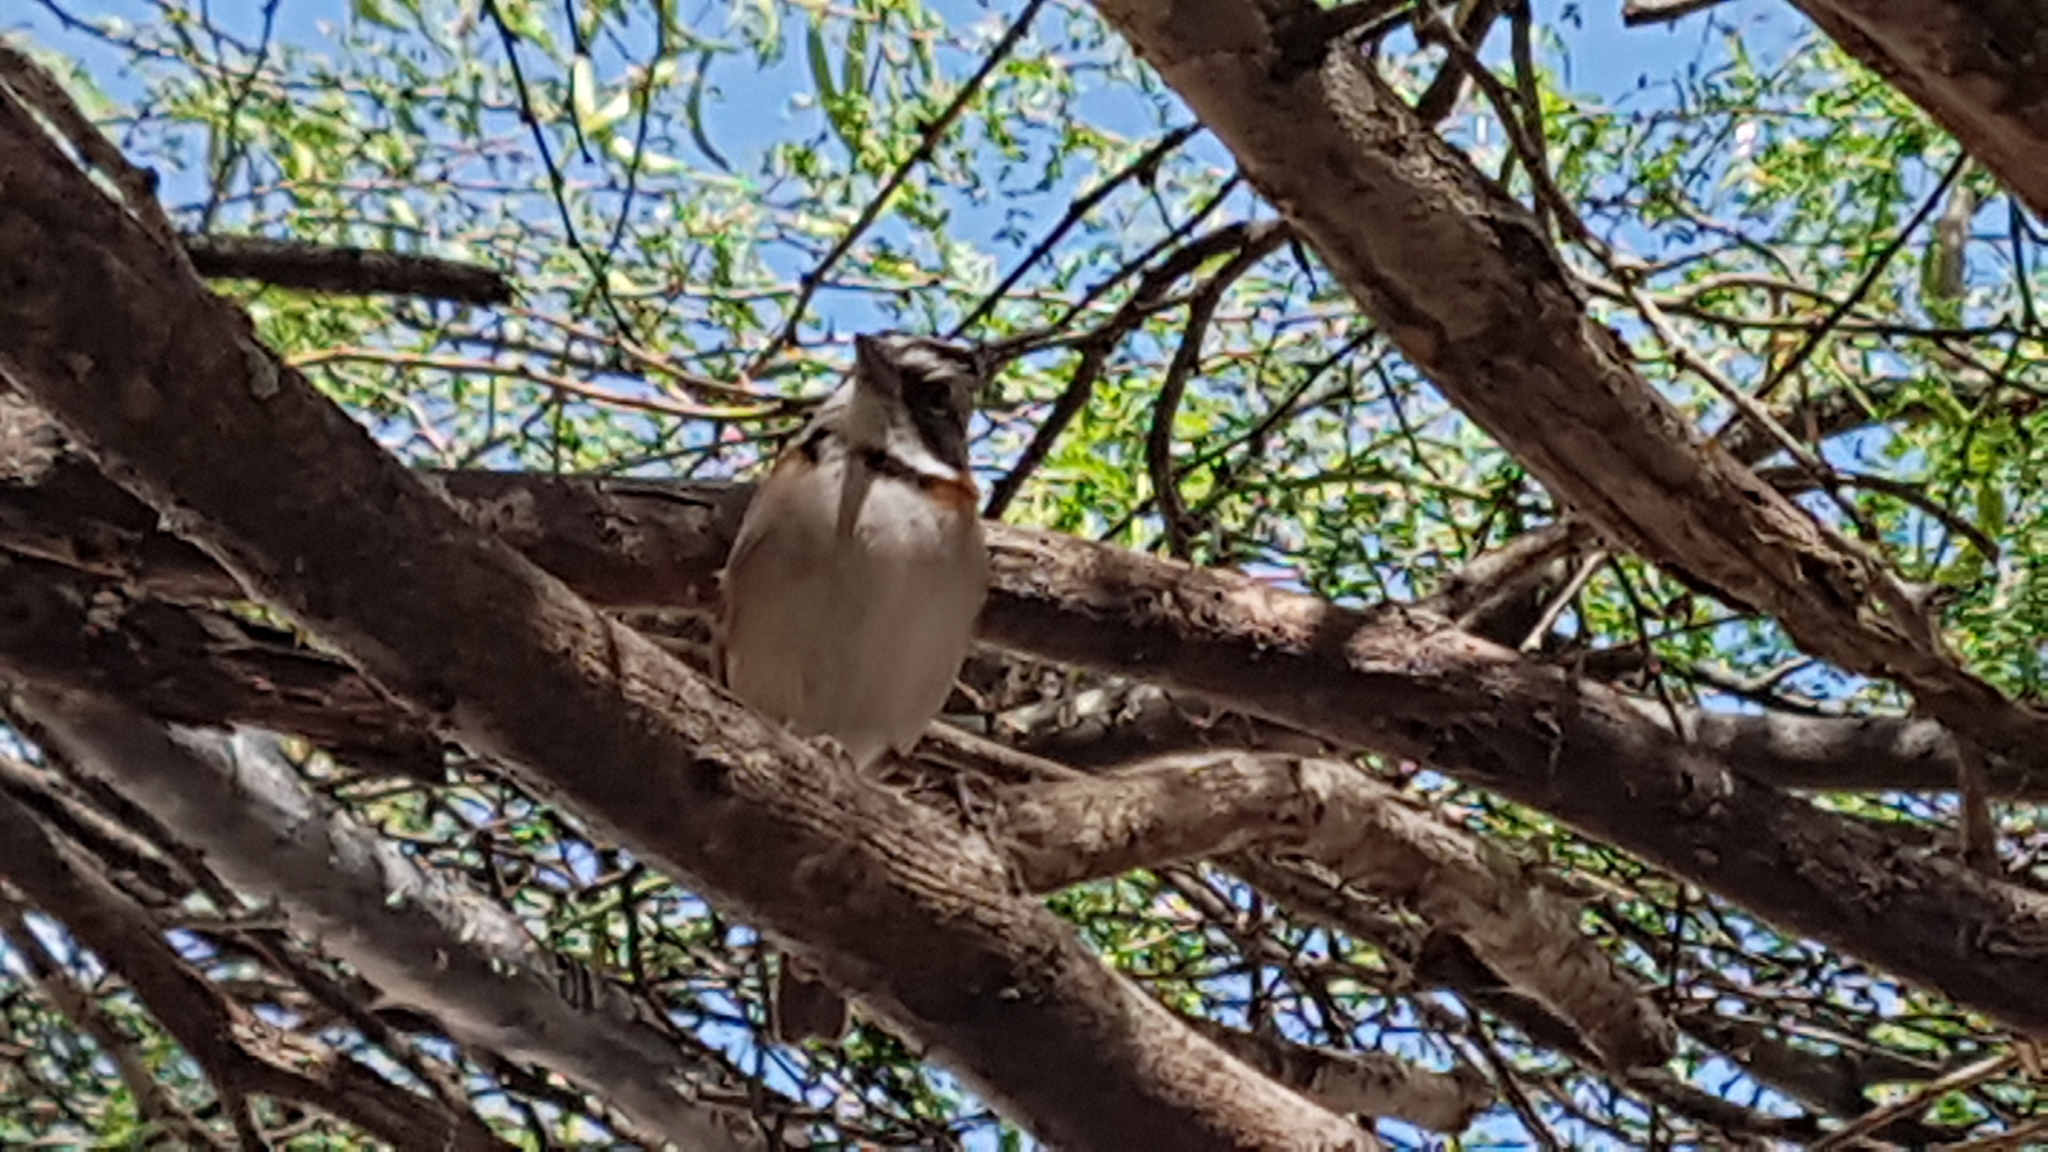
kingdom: Animalia
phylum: Chordata
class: Aves
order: Passeriformes
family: Passerellidae
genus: Zonotrichia
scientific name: Zonotrichia capensis
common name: Rufous-collared sparrow
